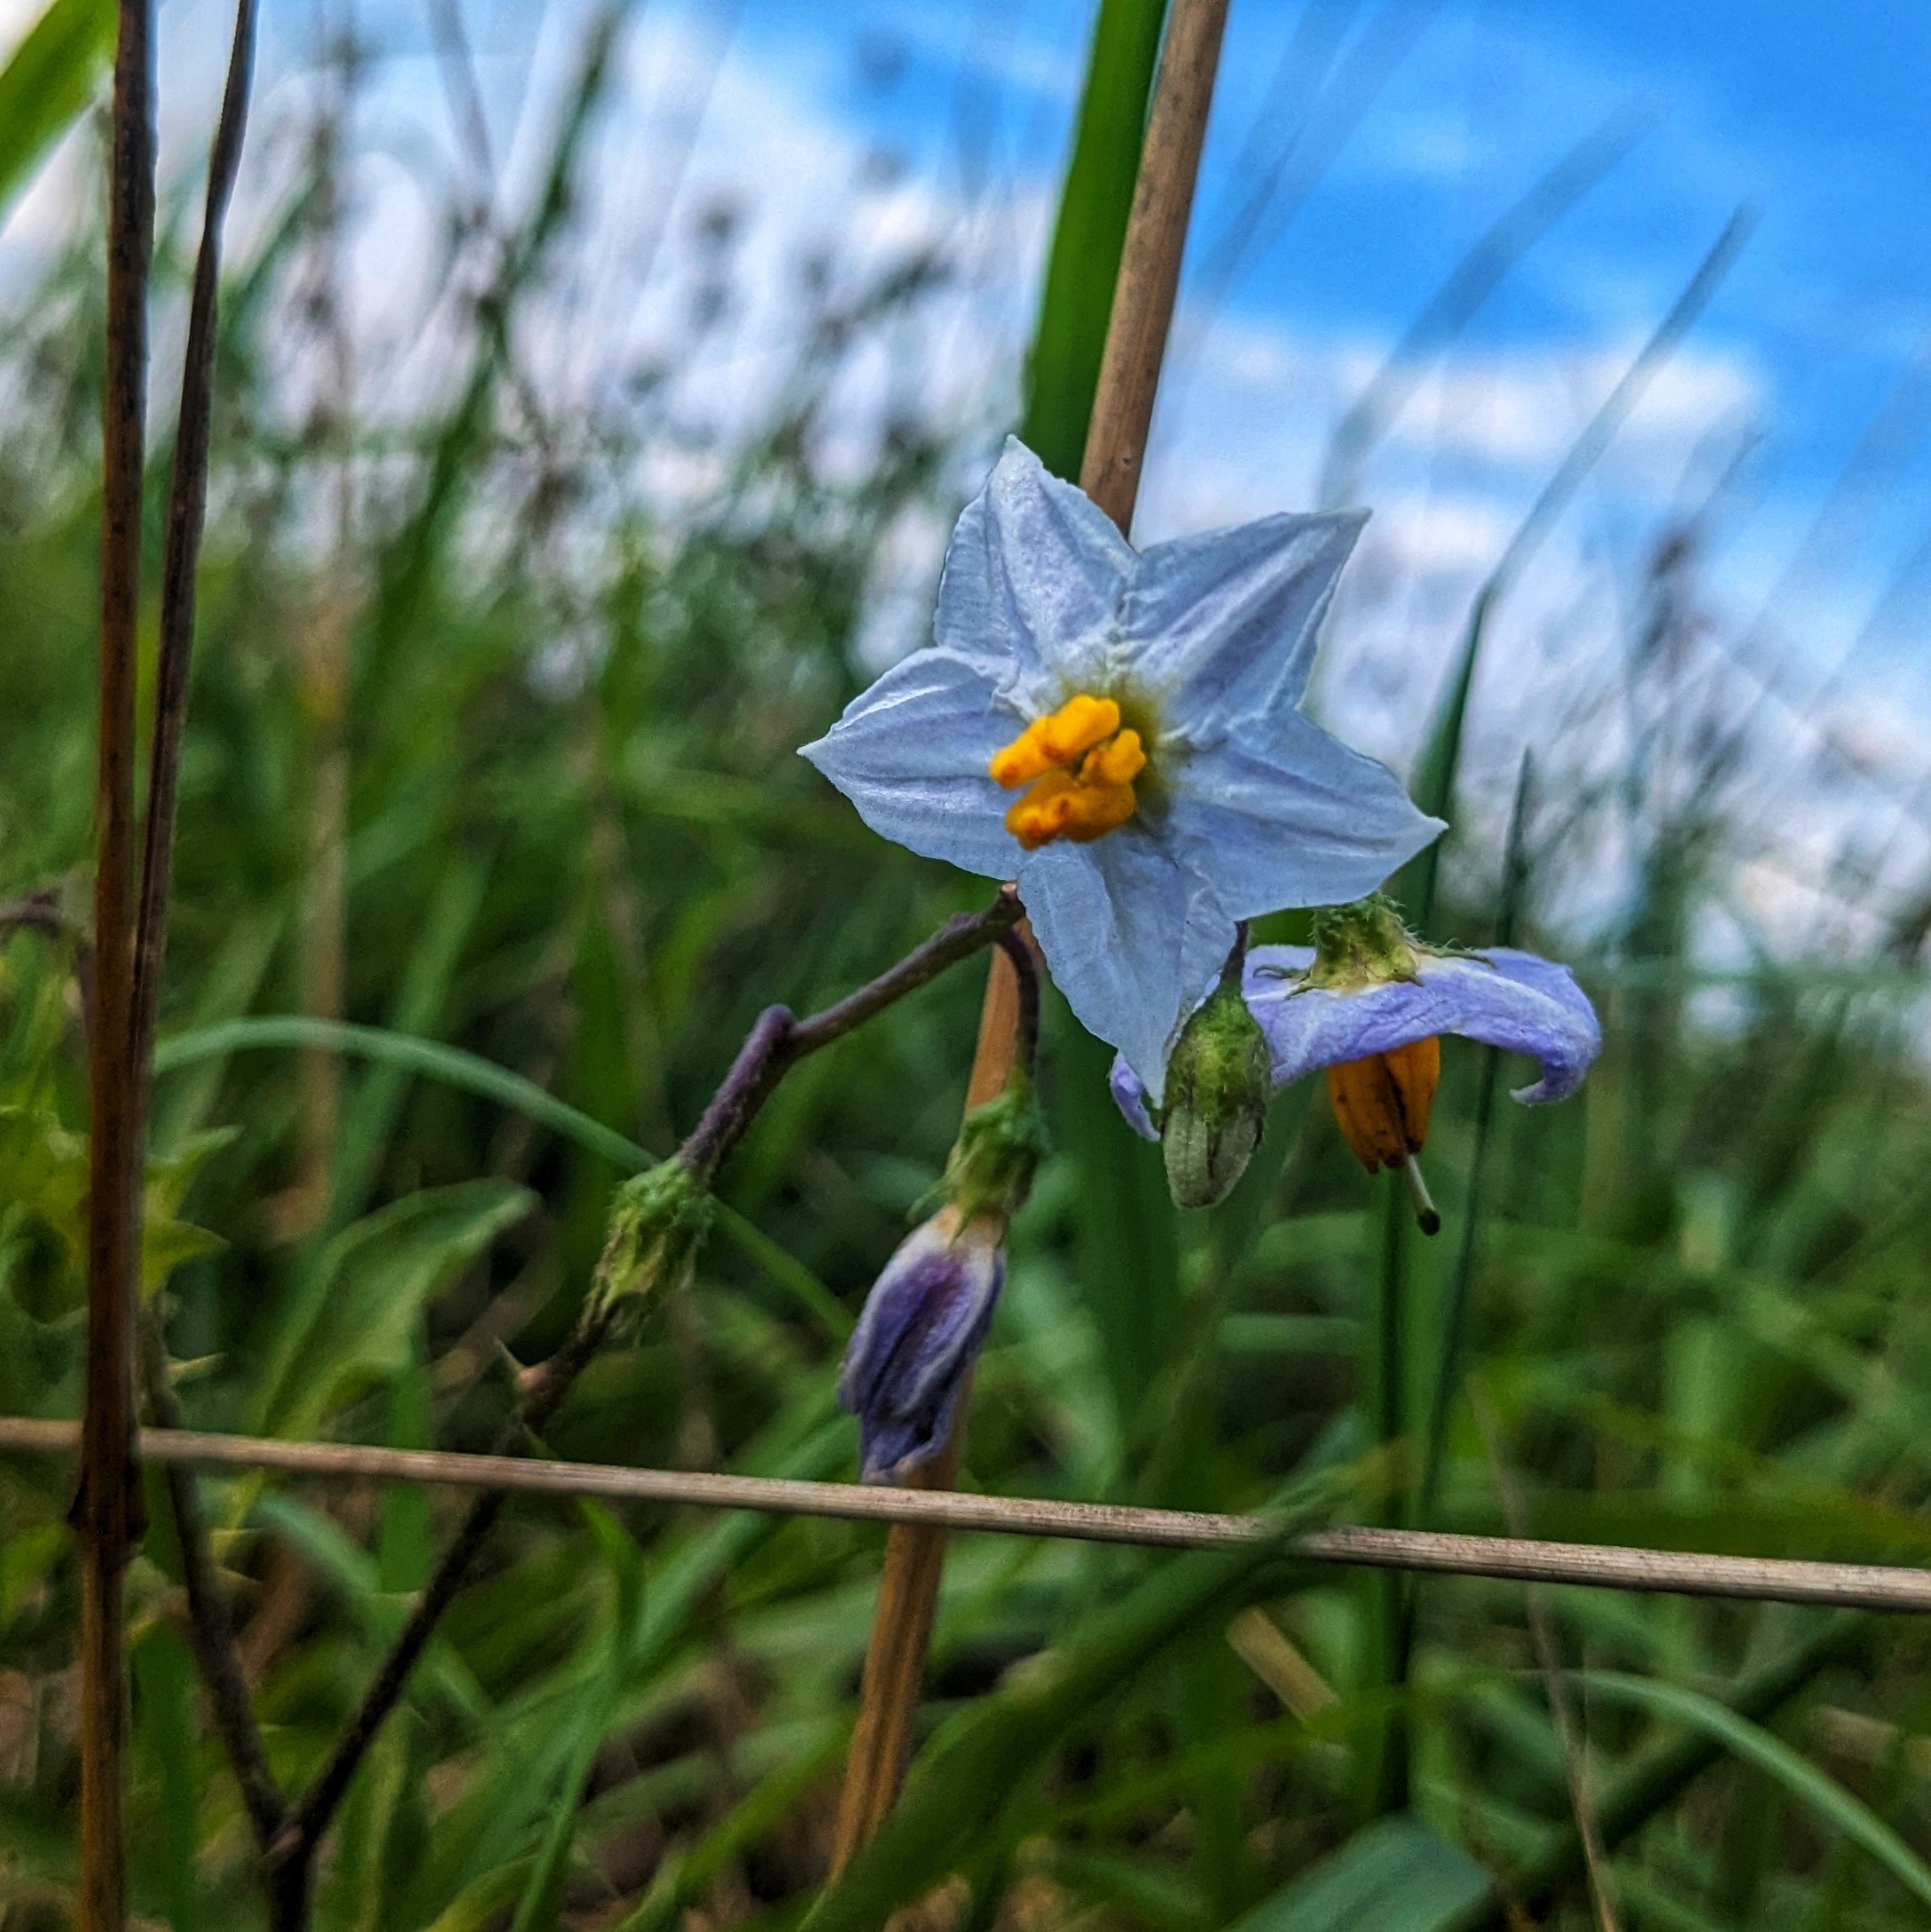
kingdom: Plantae
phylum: Tracheophyta
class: Magnoliopsida
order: Solanales
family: Solanaceae
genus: Solanum
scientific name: Solanum carolinense
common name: Horse-nettle
